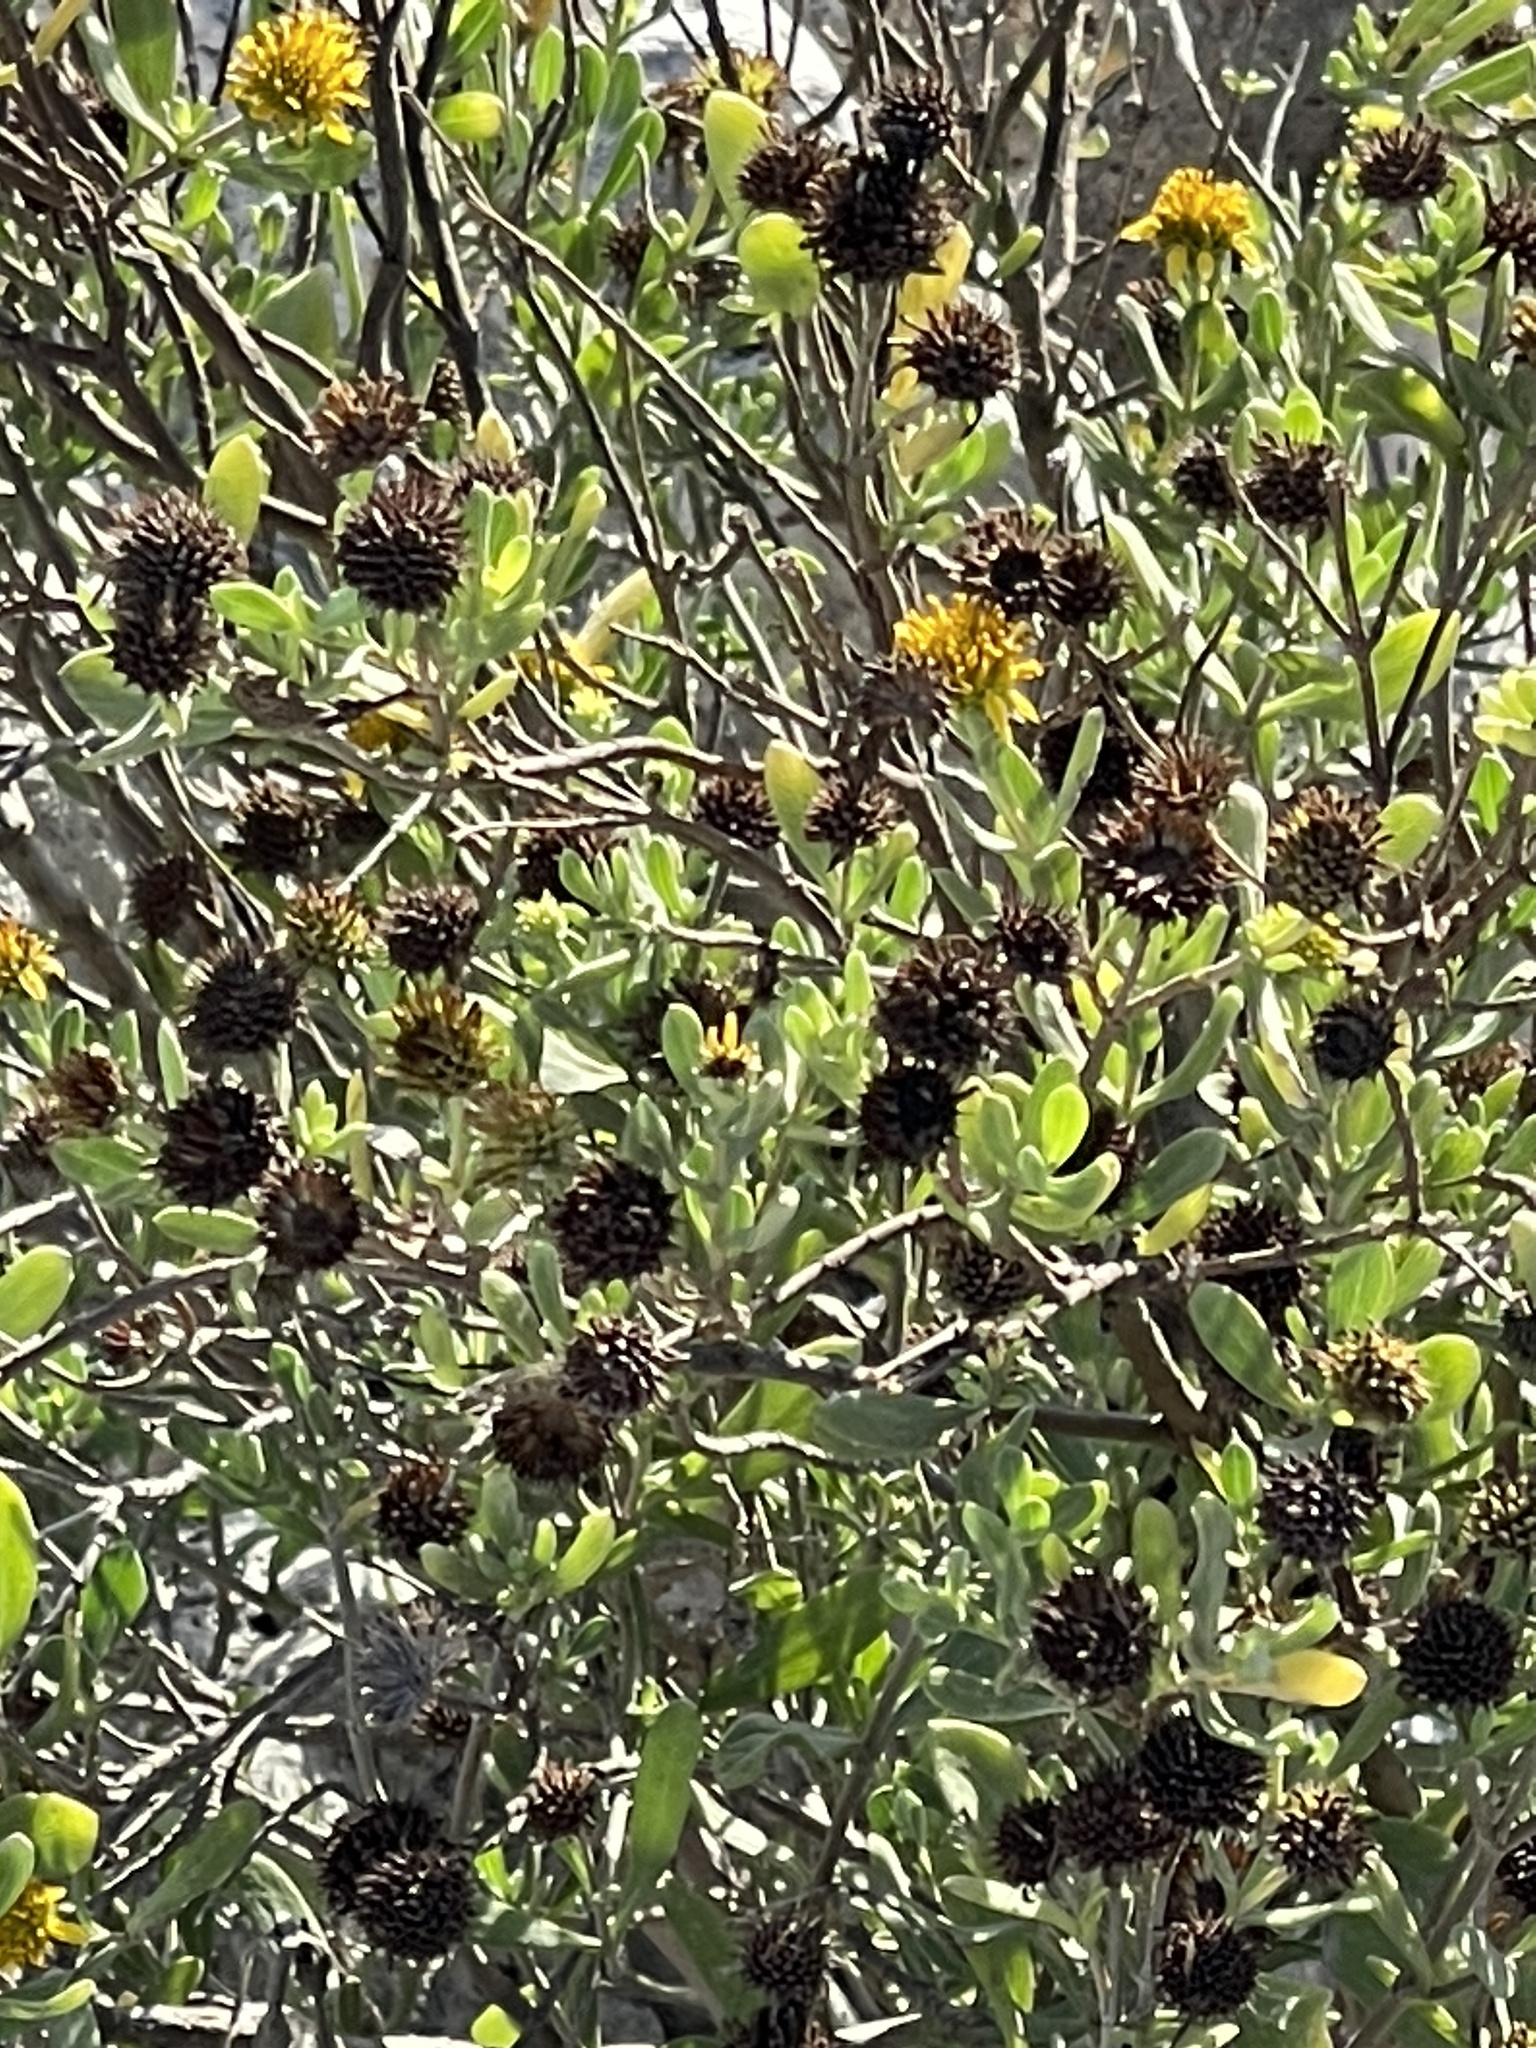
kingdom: Plantae
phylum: Tracheophyta
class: Magnoliopsida
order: Asterales
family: Asteraceae
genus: Borrichia
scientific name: Borrichia frutescens
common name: Sea oxeye
